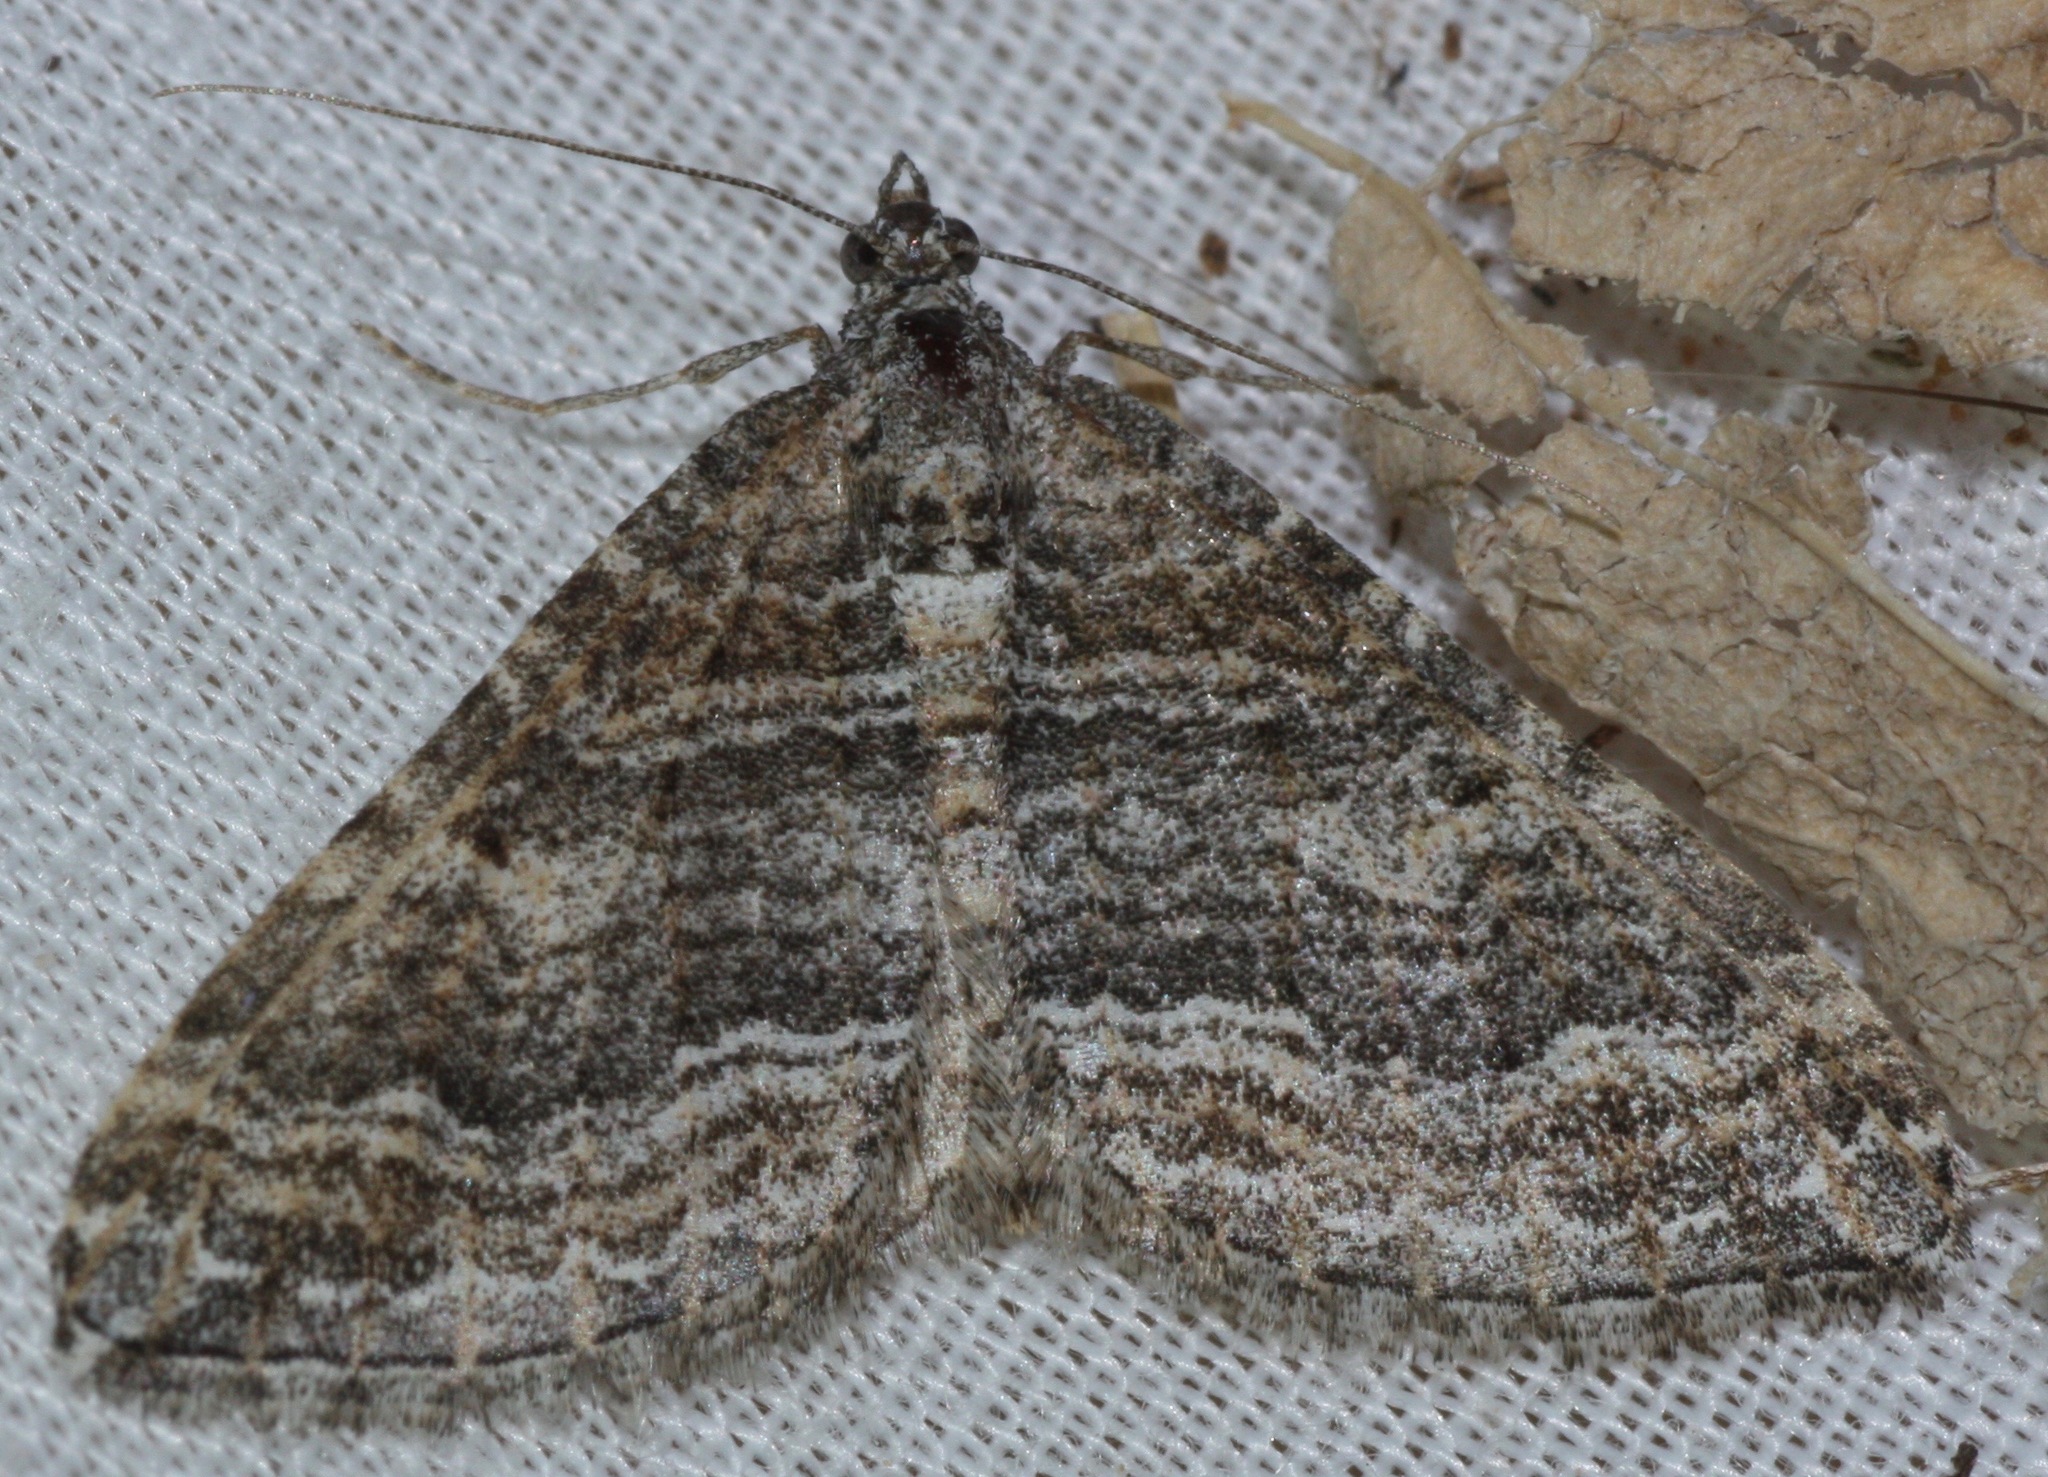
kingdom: Animalia
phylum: Arthropoda
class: Insecta
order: Lepidoptera
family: Geometridae
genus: Perizoma
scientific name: Perizoma custodiata
